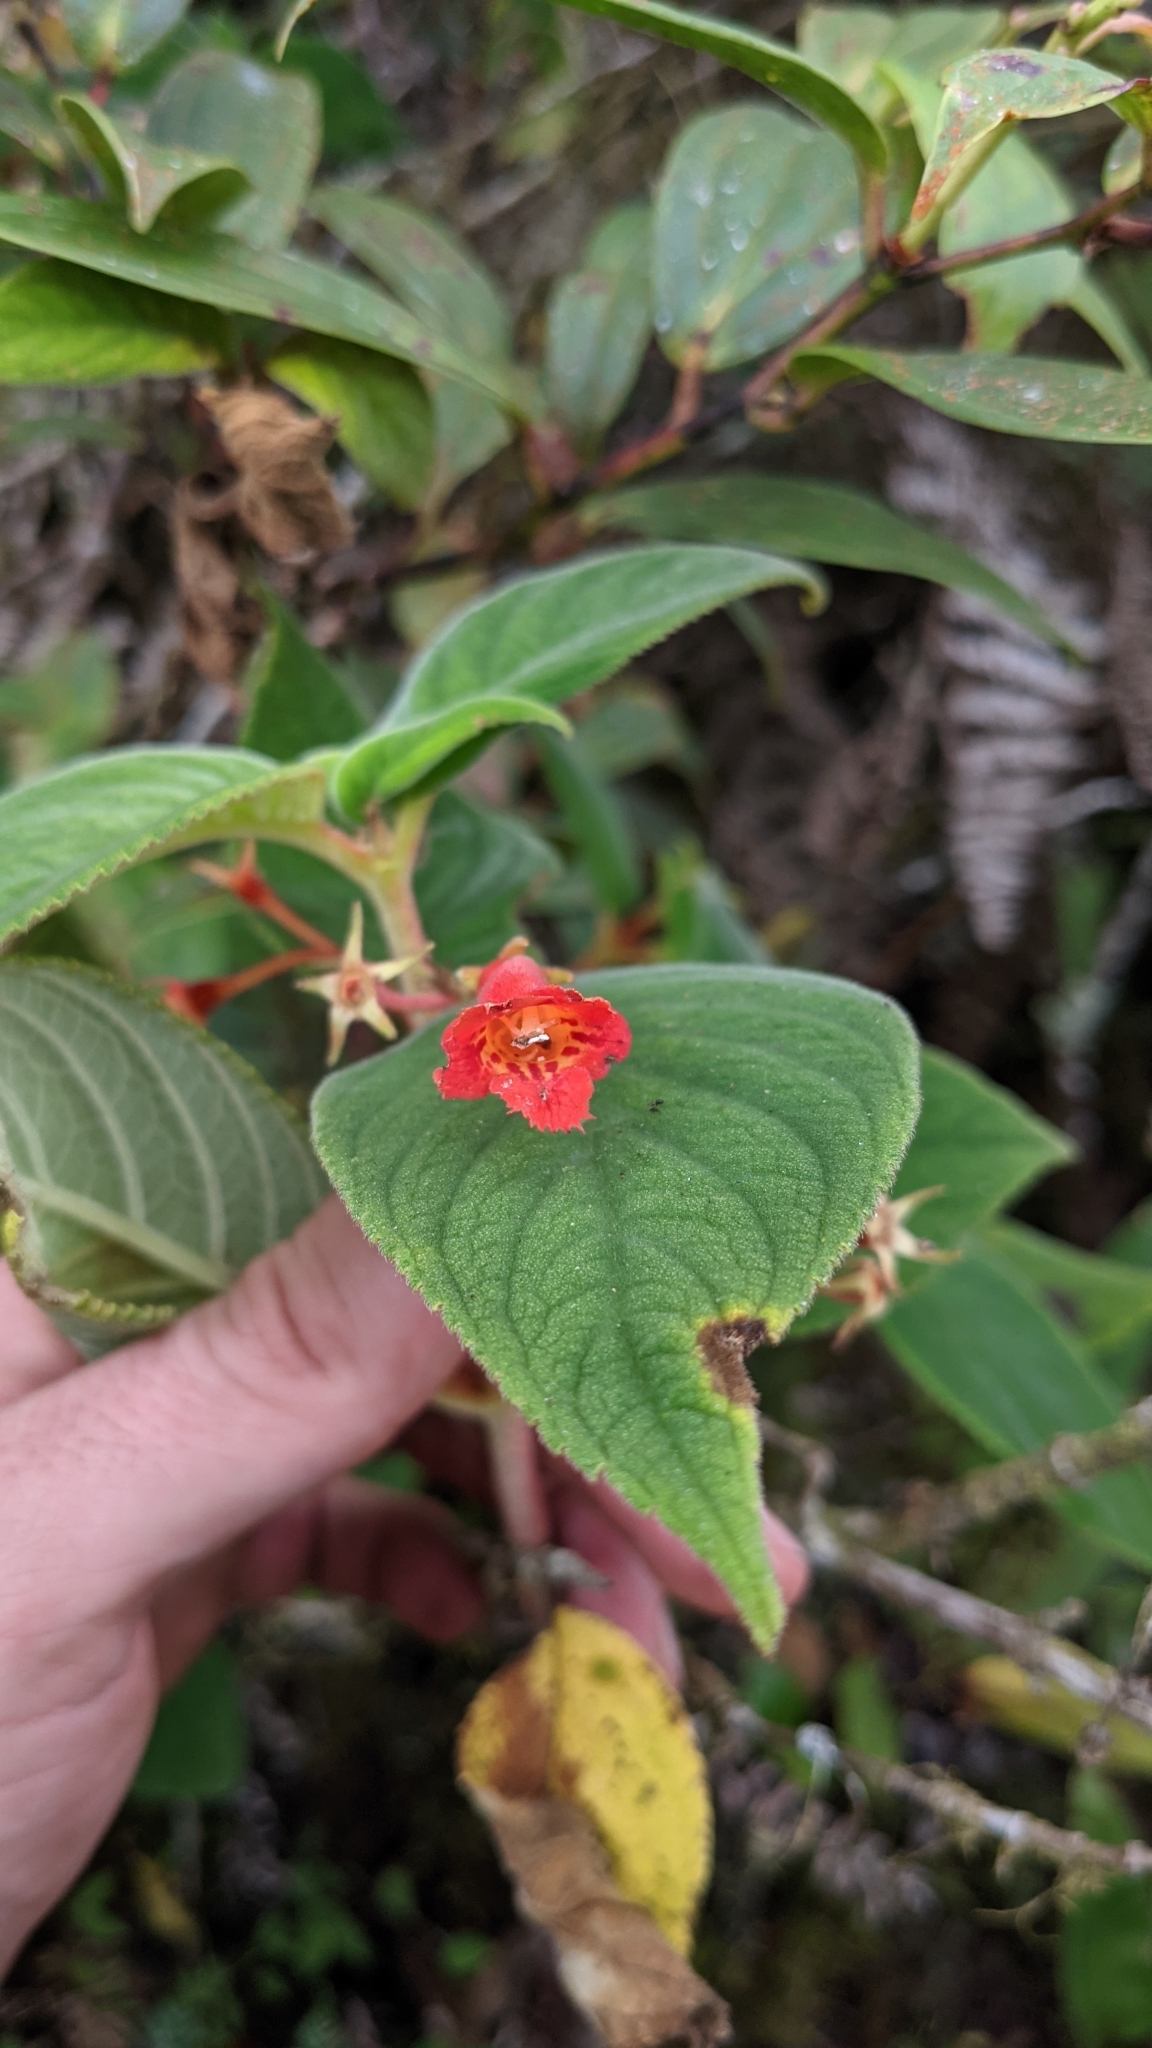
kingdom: Plantae
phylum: Tracheophyta
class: Magnoliopsida
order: Lamiales
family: Gesneriaceae
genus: Moussonia
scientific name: Moussonia strigosa
